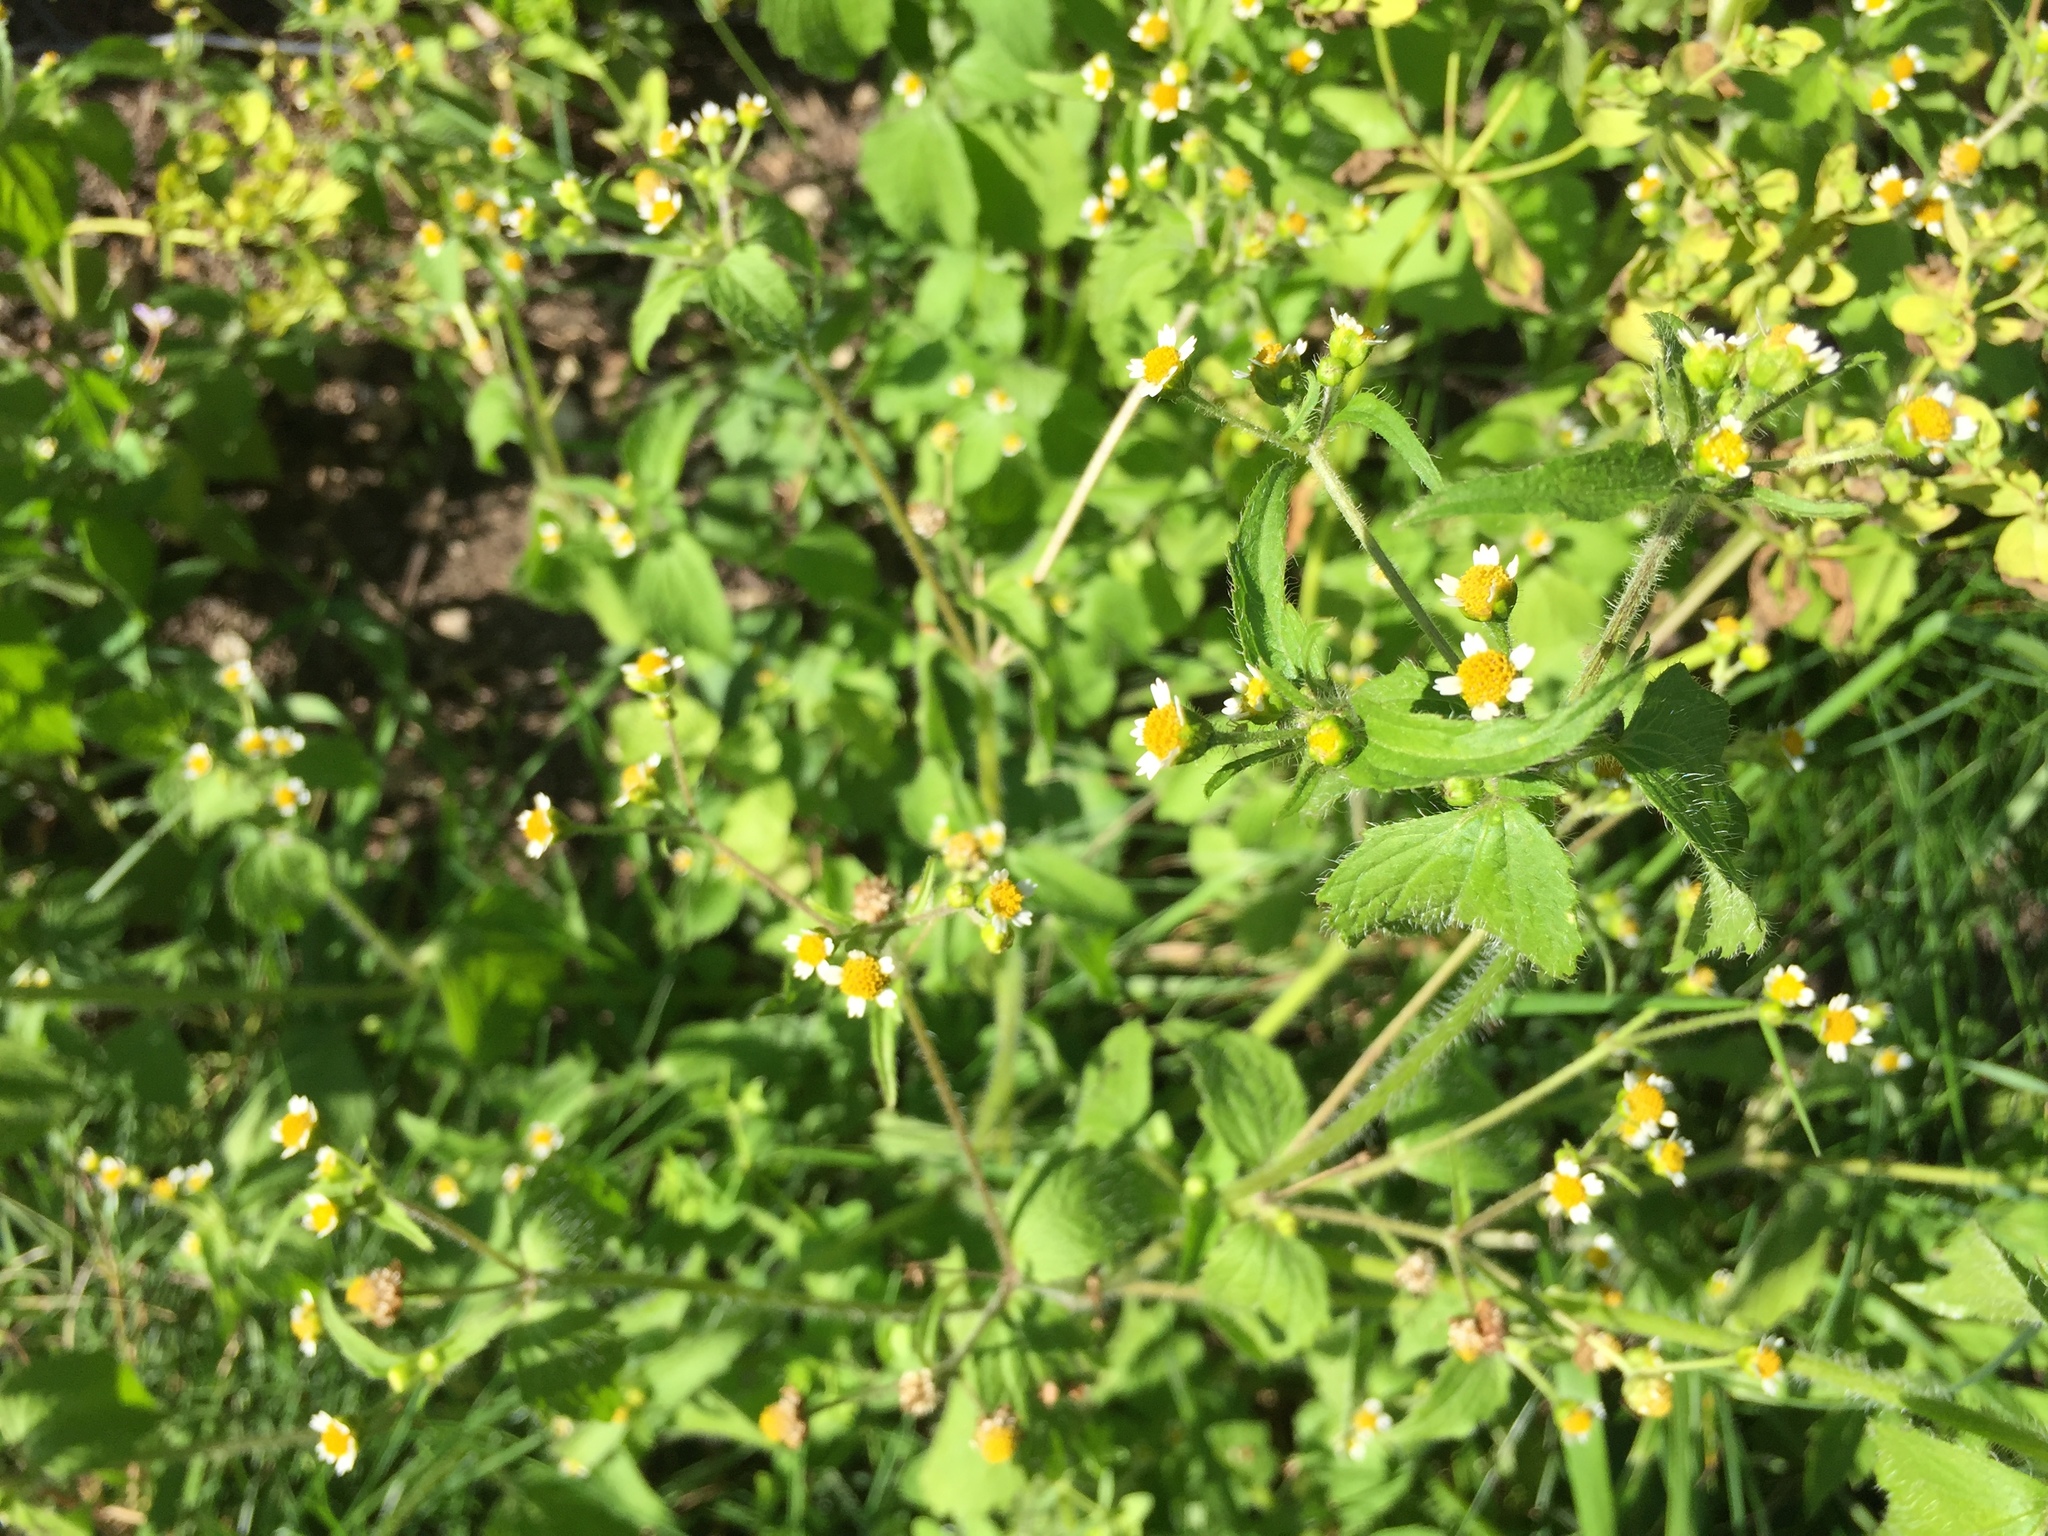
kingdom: Plantae
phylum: Tracheophyta
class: Magnoliopsida
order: Asterales
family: Asteraceae
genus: Galinsoga
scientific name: Galinsoga quadriradiata
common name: Shaggy soldier
